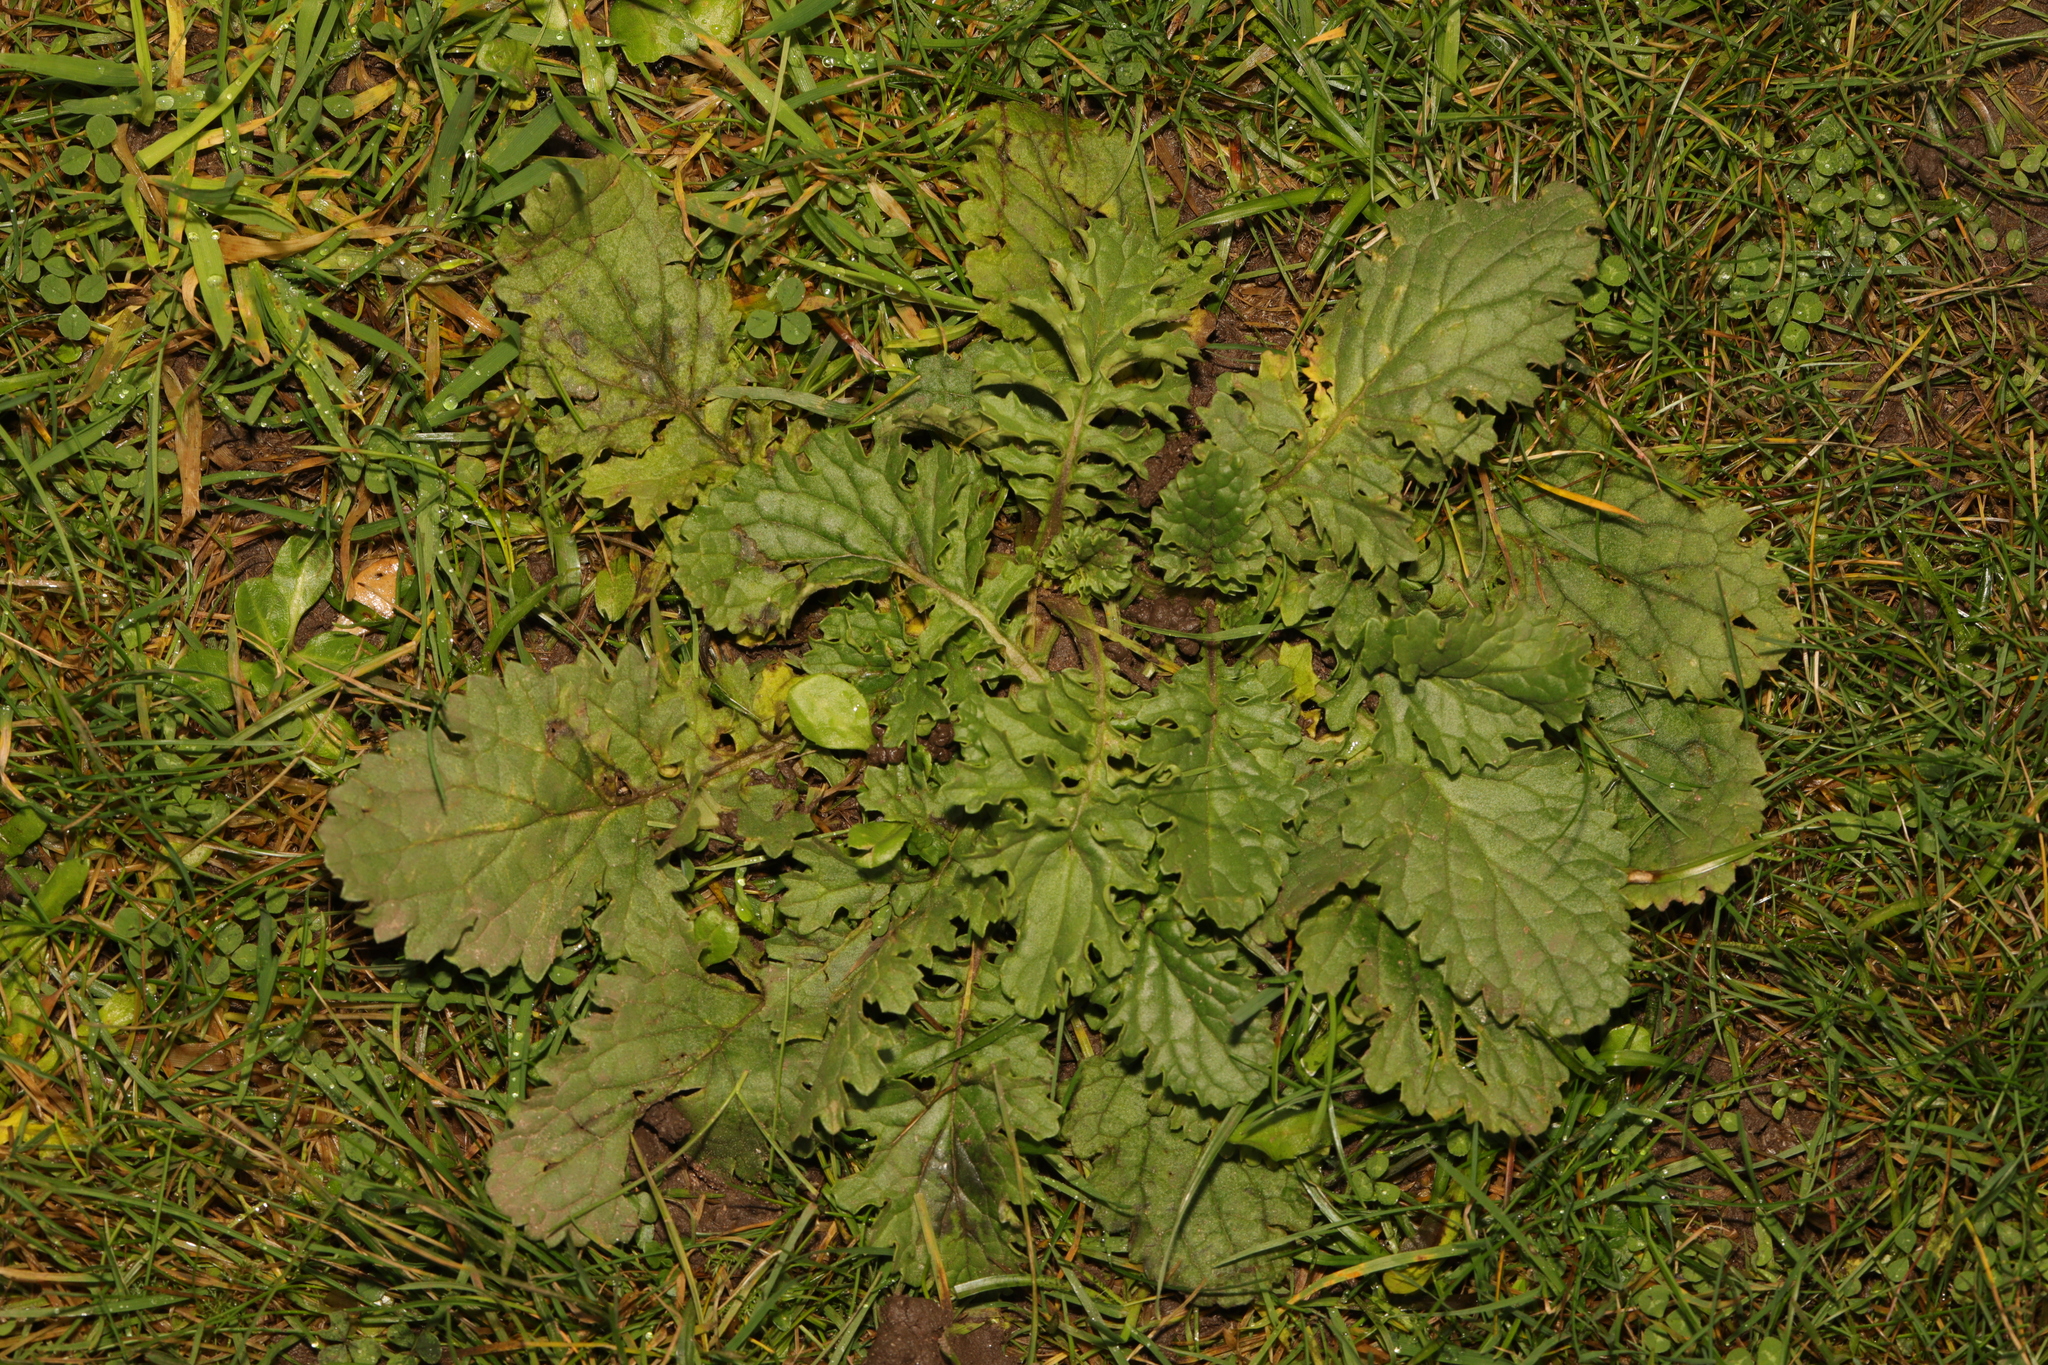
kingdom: Plantae
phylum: Tracheophyta
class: Magnoliopsida
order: Asterales
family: Asteraceae
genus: Jacobaea
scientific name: Jacobaea vulgaris
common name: Stinking willie
